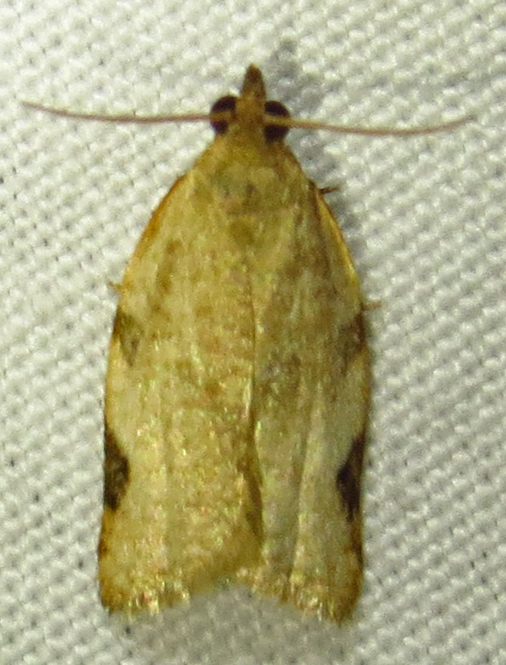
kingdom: Animalia
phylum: Arthropoda
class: Insecta
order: Lepidoptera
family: Tortricidae
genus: Clepsis
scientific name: Clepsis virescana
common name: Greenish apple moth
